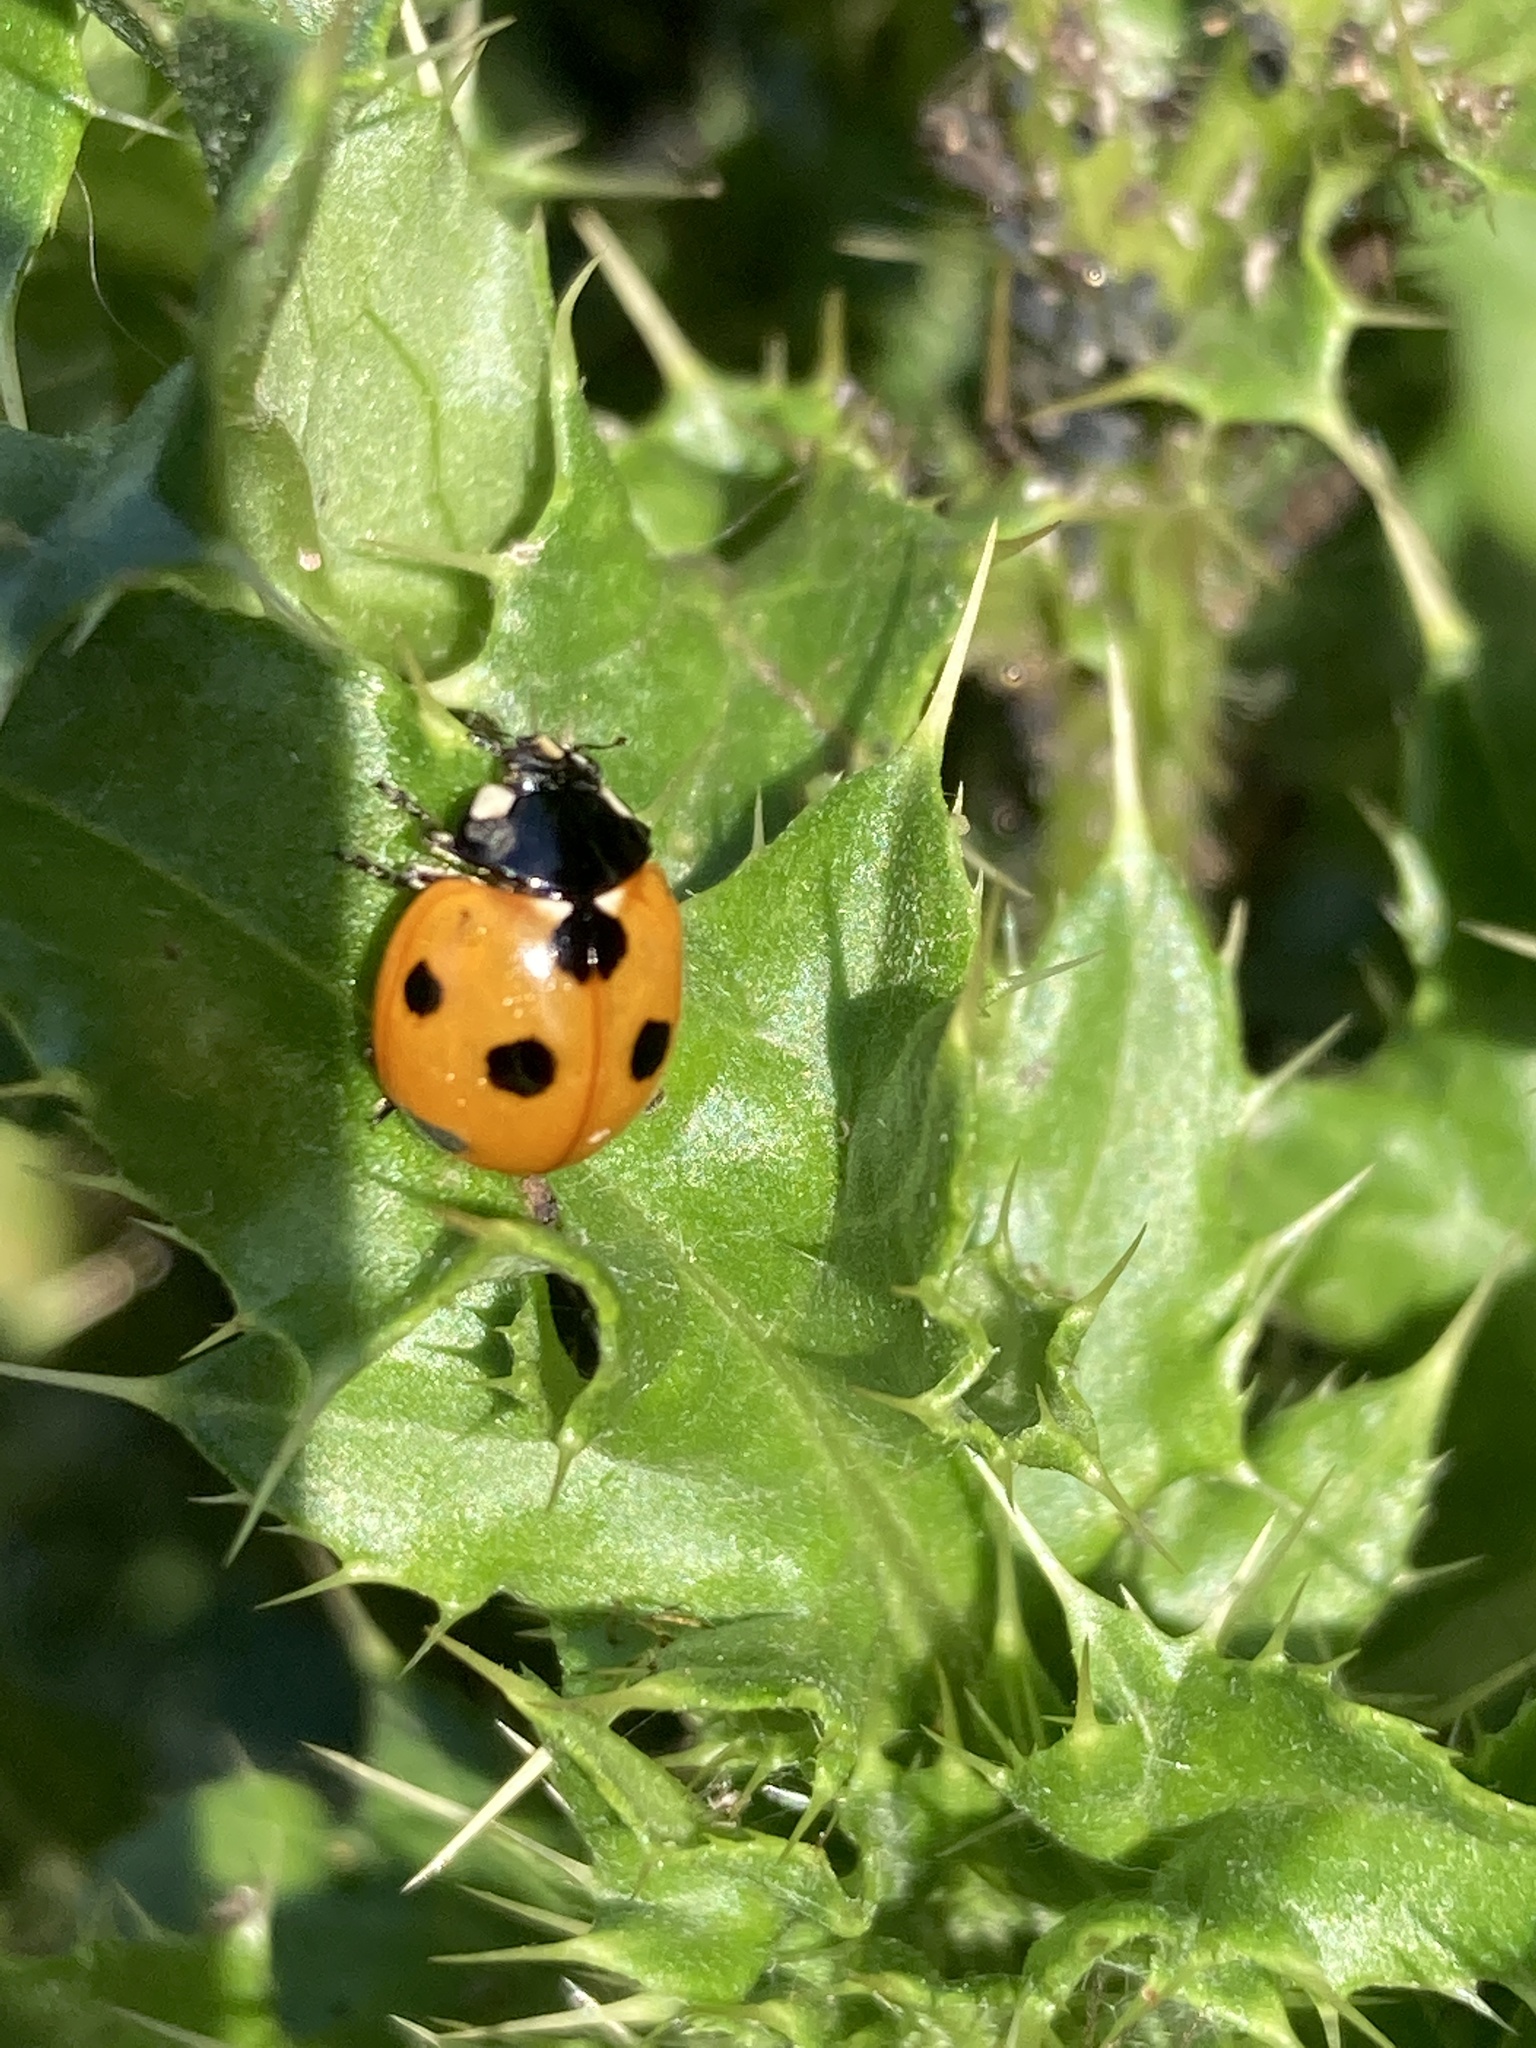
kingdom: Animalia
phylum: Arthropoda
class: Insecta
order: Coleoptera
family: Coccinellidae
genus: Coccinella
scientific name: Coccinella septempunctata
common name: Sevenspotted lady beetle
